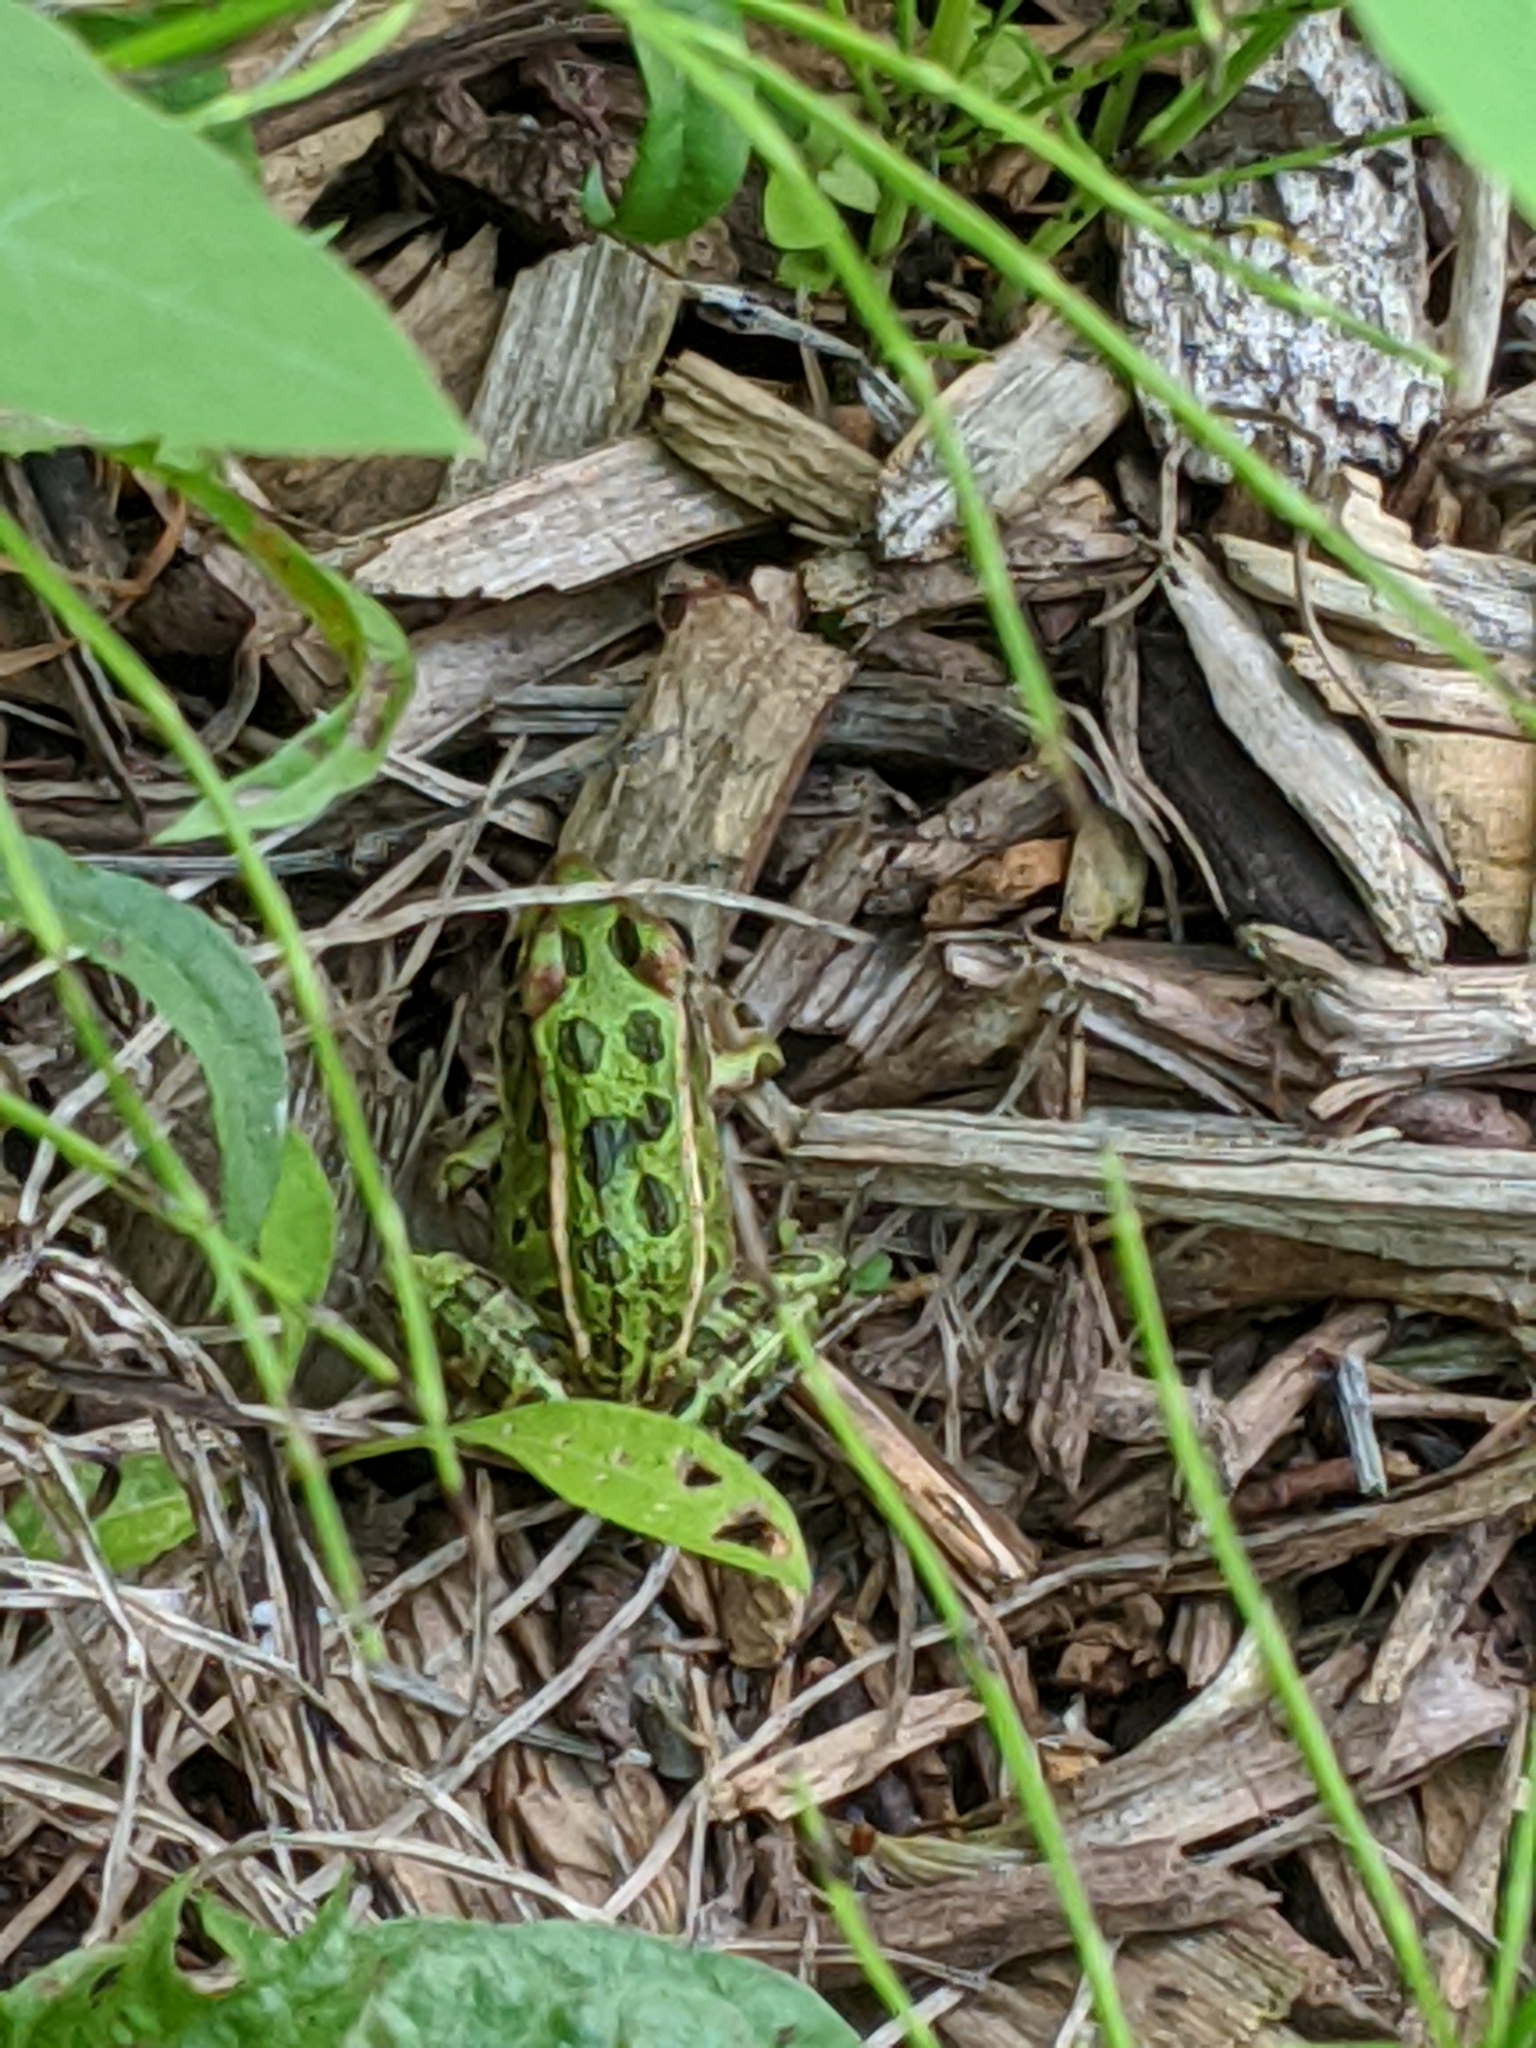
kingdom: Animalia
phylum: Chordata
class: Amphibia
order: Anura
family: Ranidae
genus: Lithobates
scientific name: Lithobates pipiens
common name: Northern leopard frog
